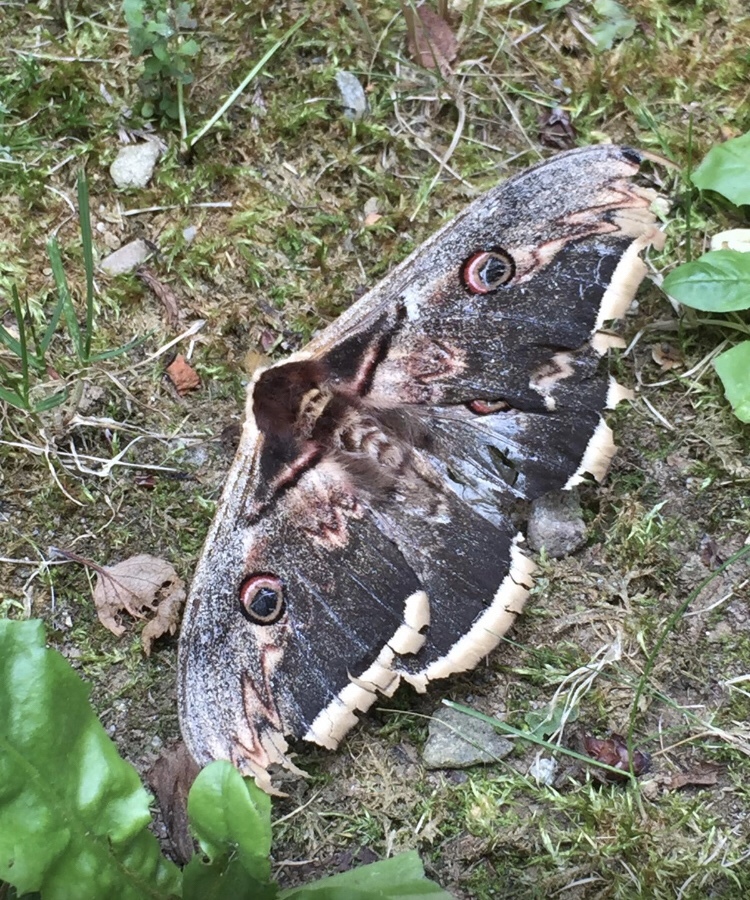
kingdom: Animalia
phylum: Arthropoda
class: Insecta
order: Lepidoptera
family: Saturniidae
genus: Saturnia
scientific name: Saturnia pyri
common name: Great peacock moth
